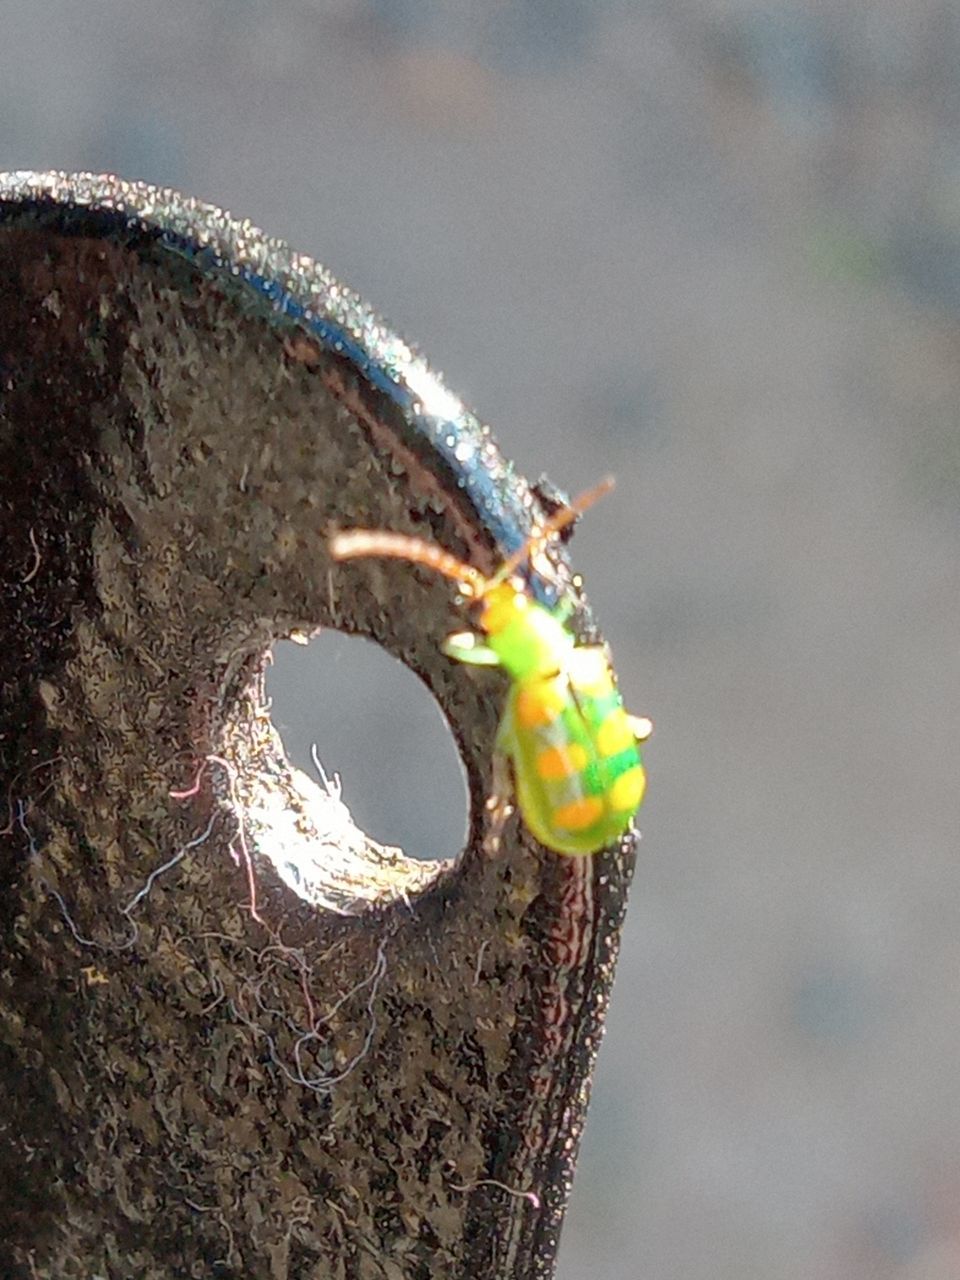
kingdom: Animalia
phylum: Arthropoda
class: Insecta
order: Coleoptera
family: Chrysomelidae
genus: Diabrotica
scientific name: Diabrotica speciosa
